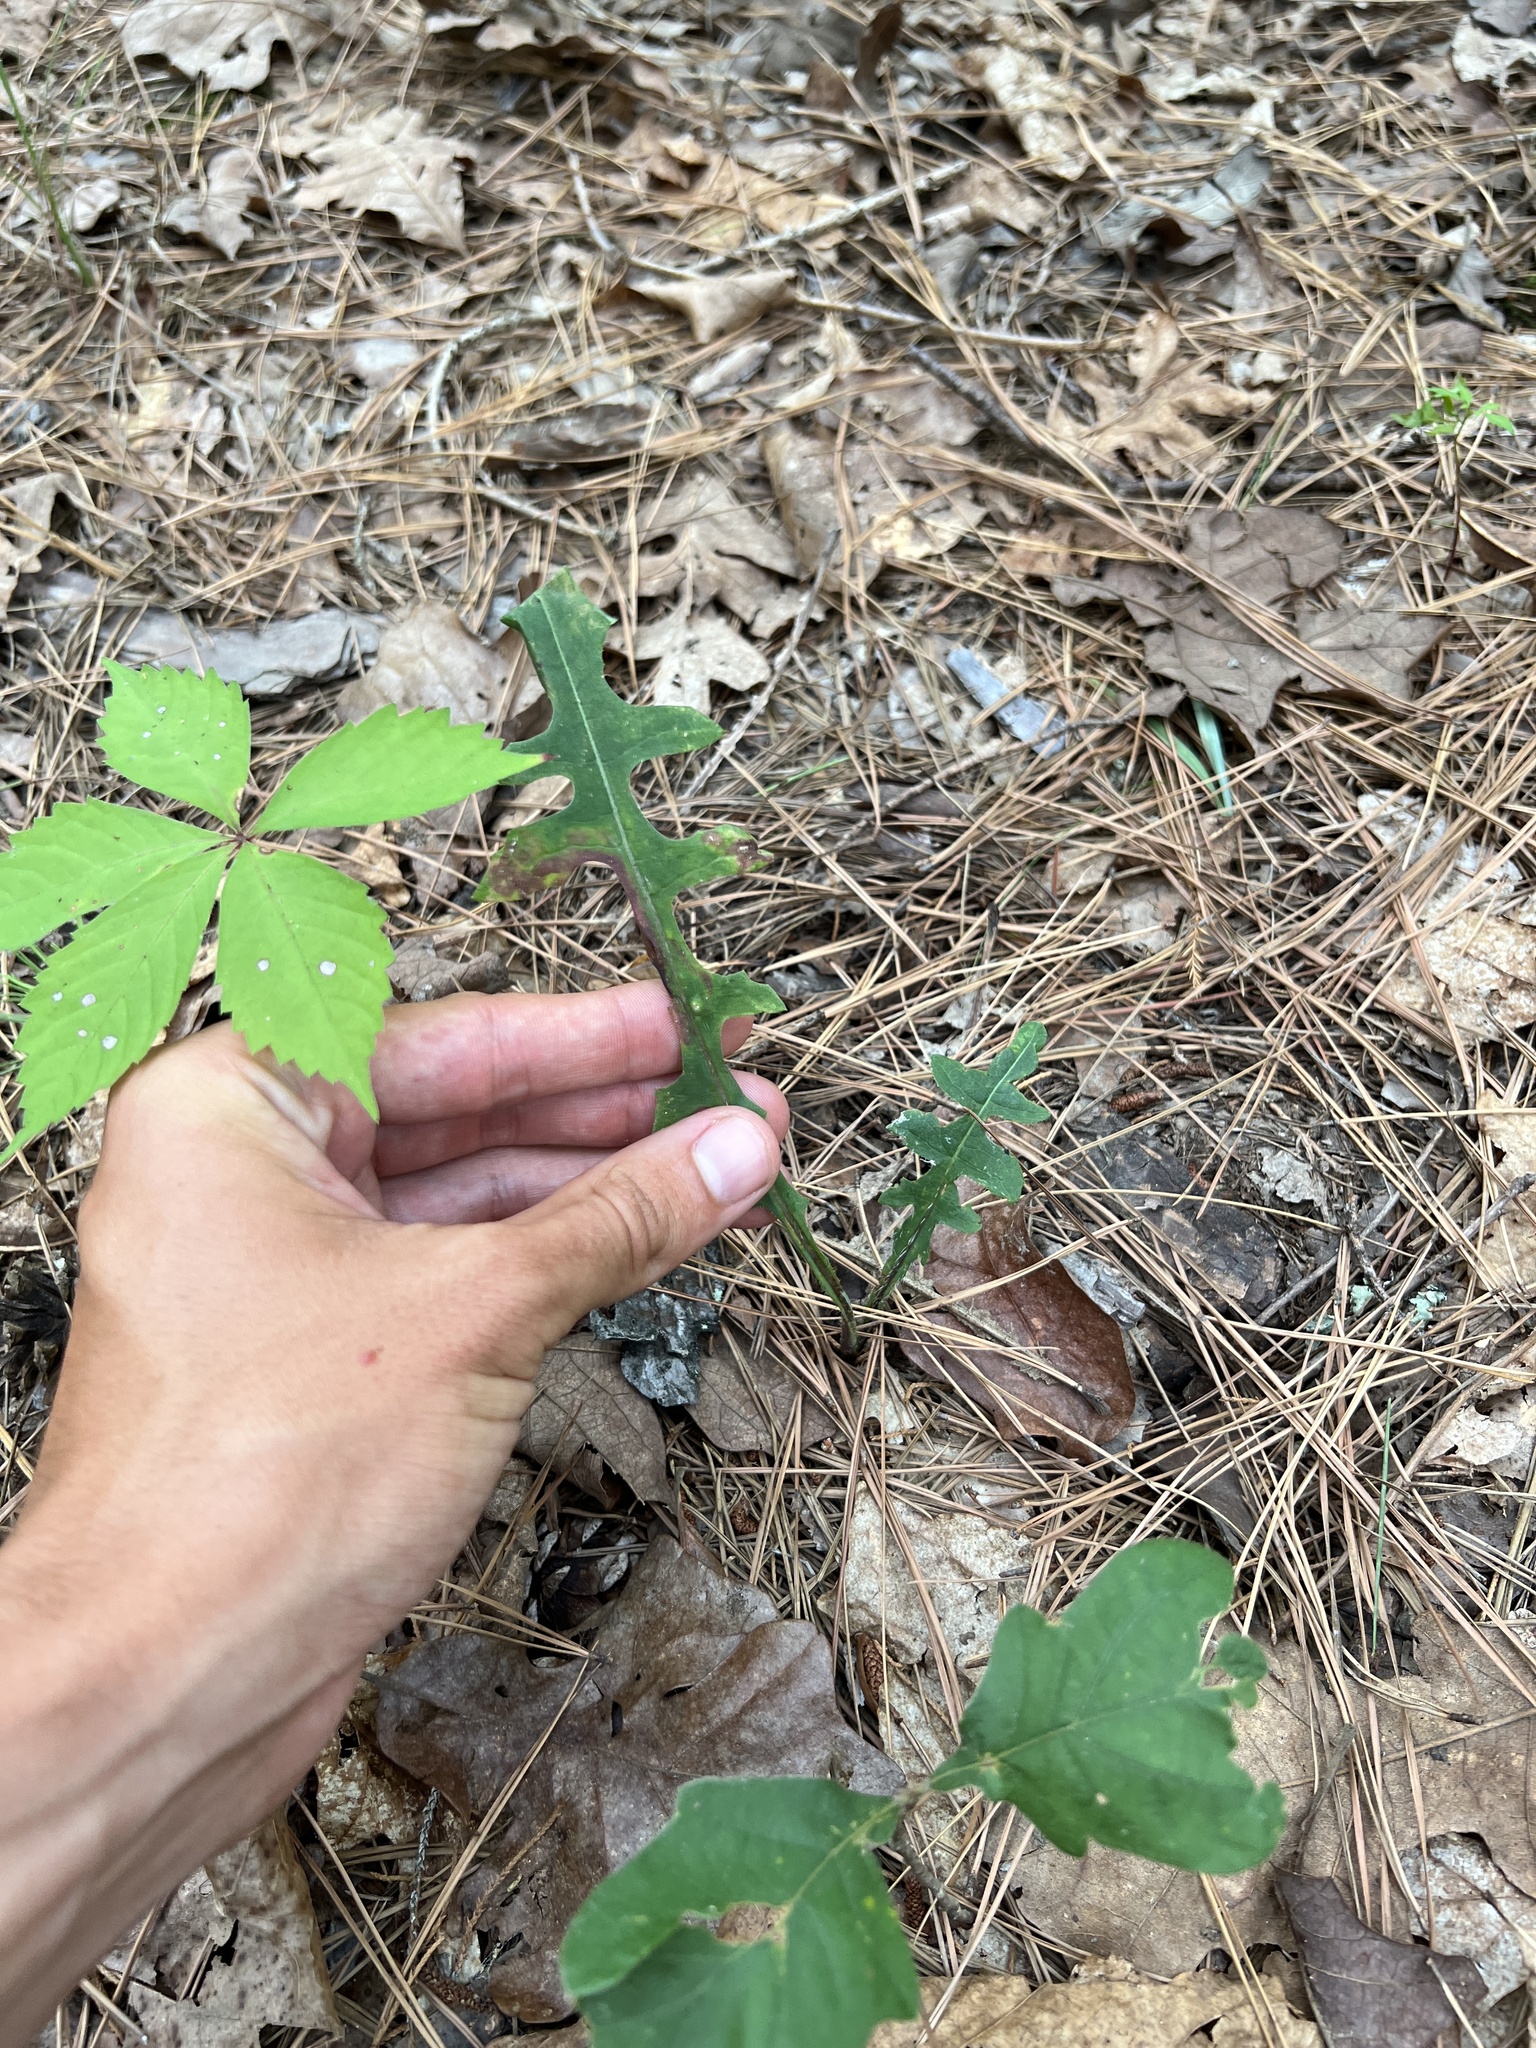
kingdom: Plantae
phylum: Tracheophyta
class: Magnoliopsida
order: Asterales
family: Asteraceae
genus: Lactuca
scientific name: Lactuca hirsuta
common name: Hairy lettuce
